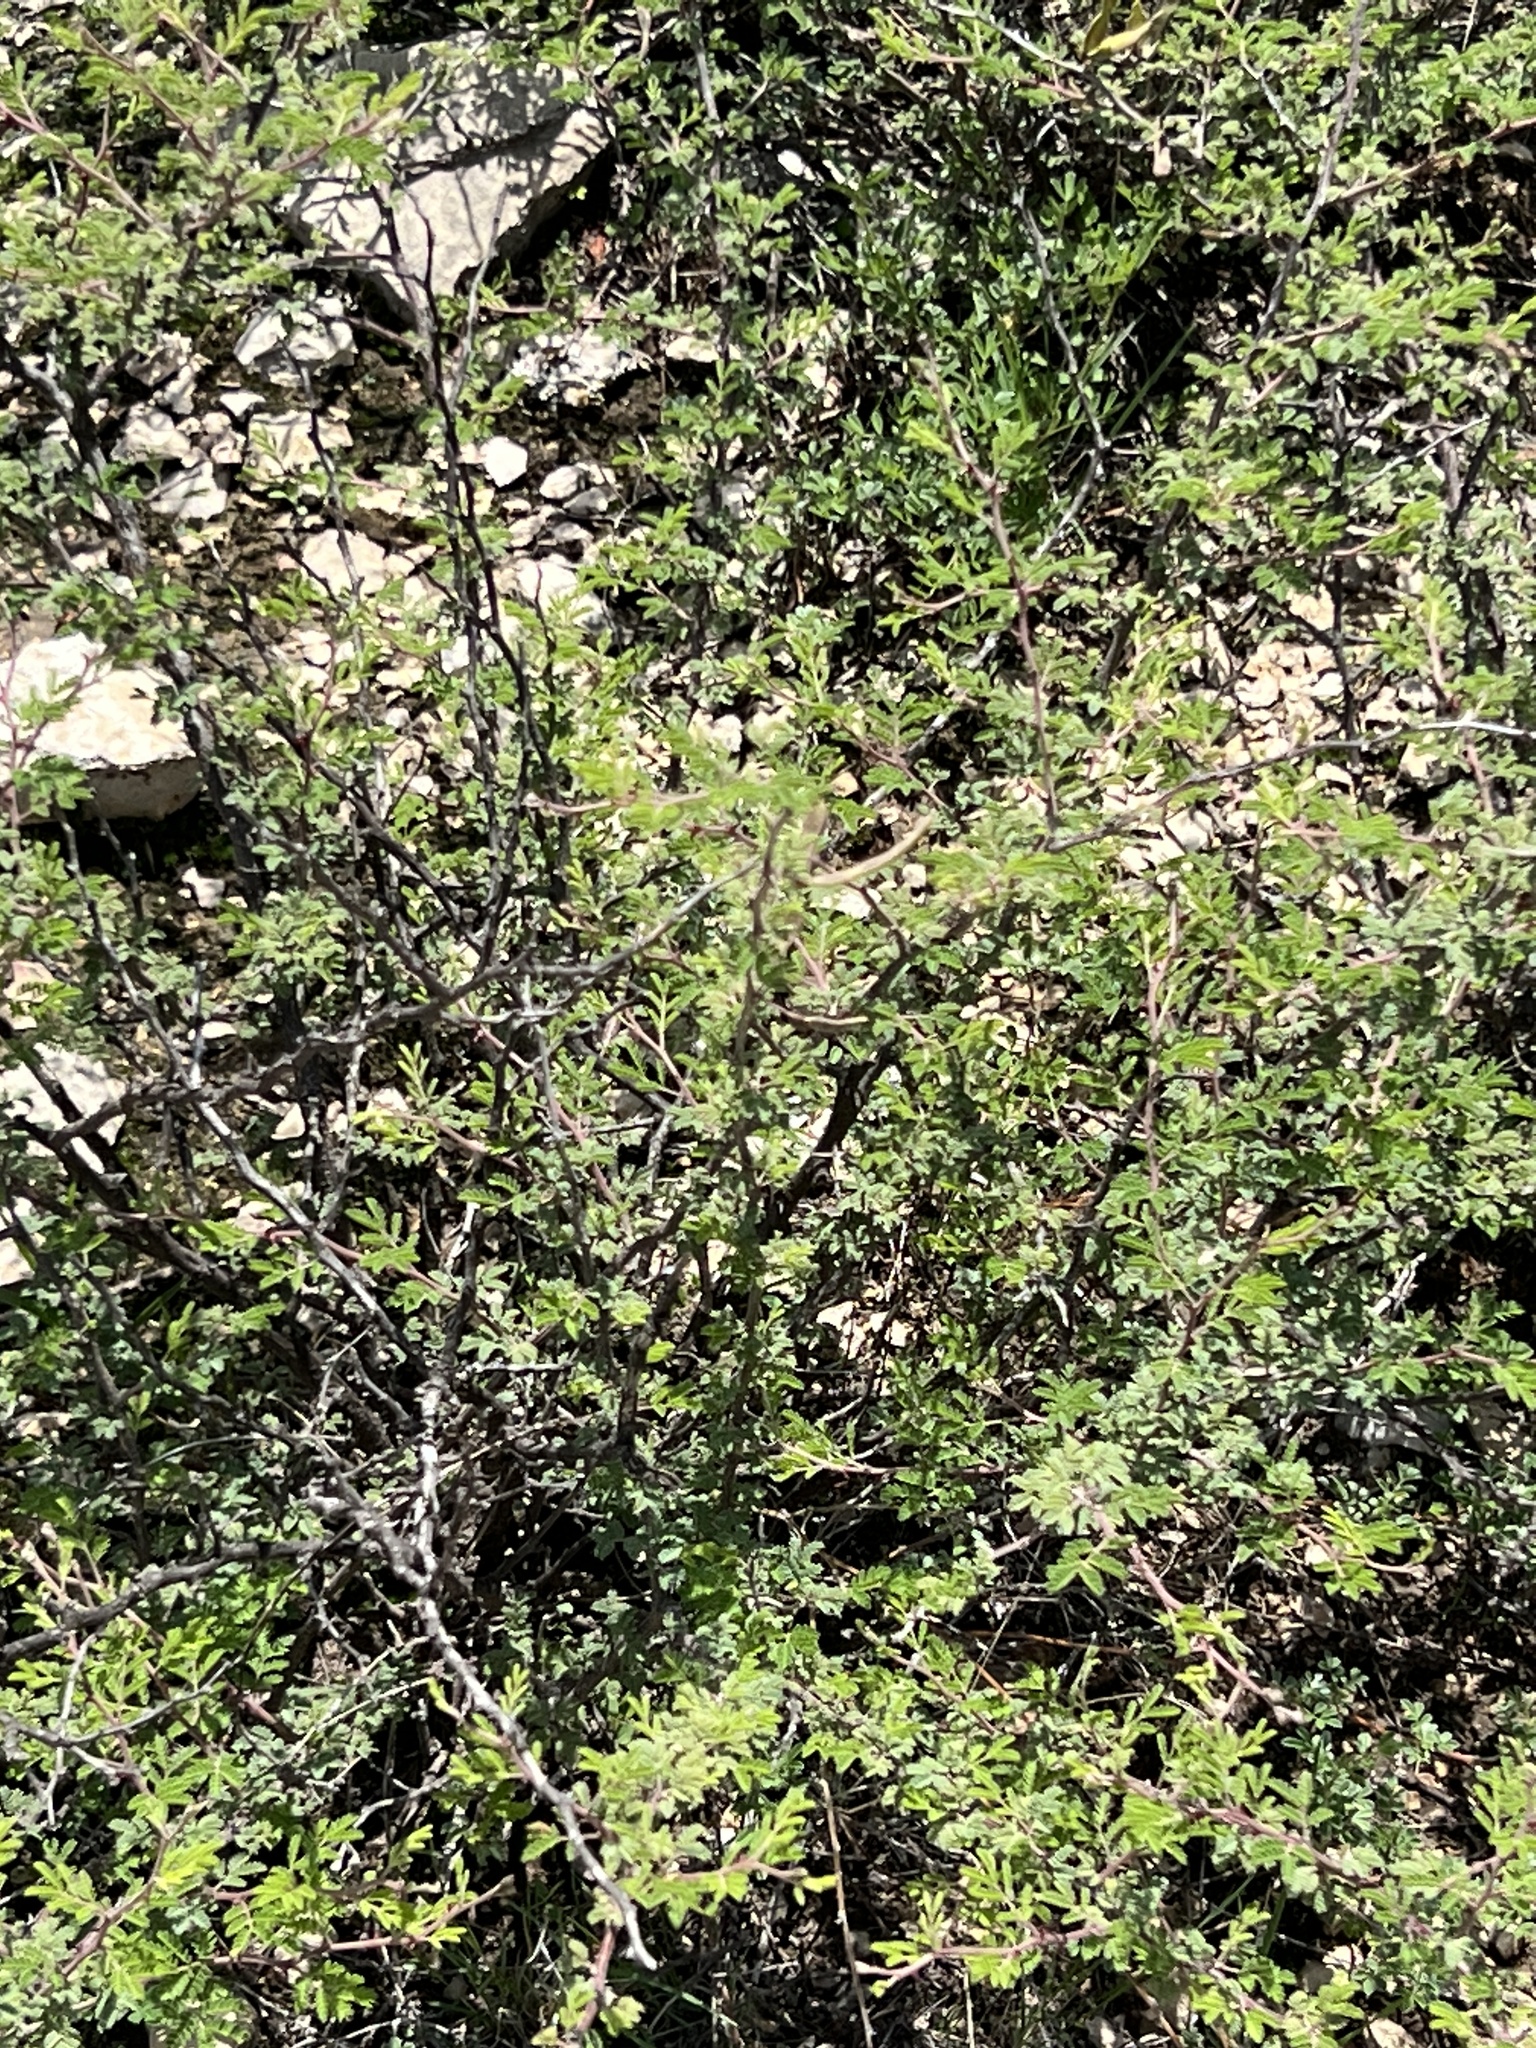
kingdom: Plantae
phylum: Tracheophyta
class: Magnoliopsida
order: Fabales
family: Fabaceae
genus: Mimosa
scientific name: Mimosa texana
